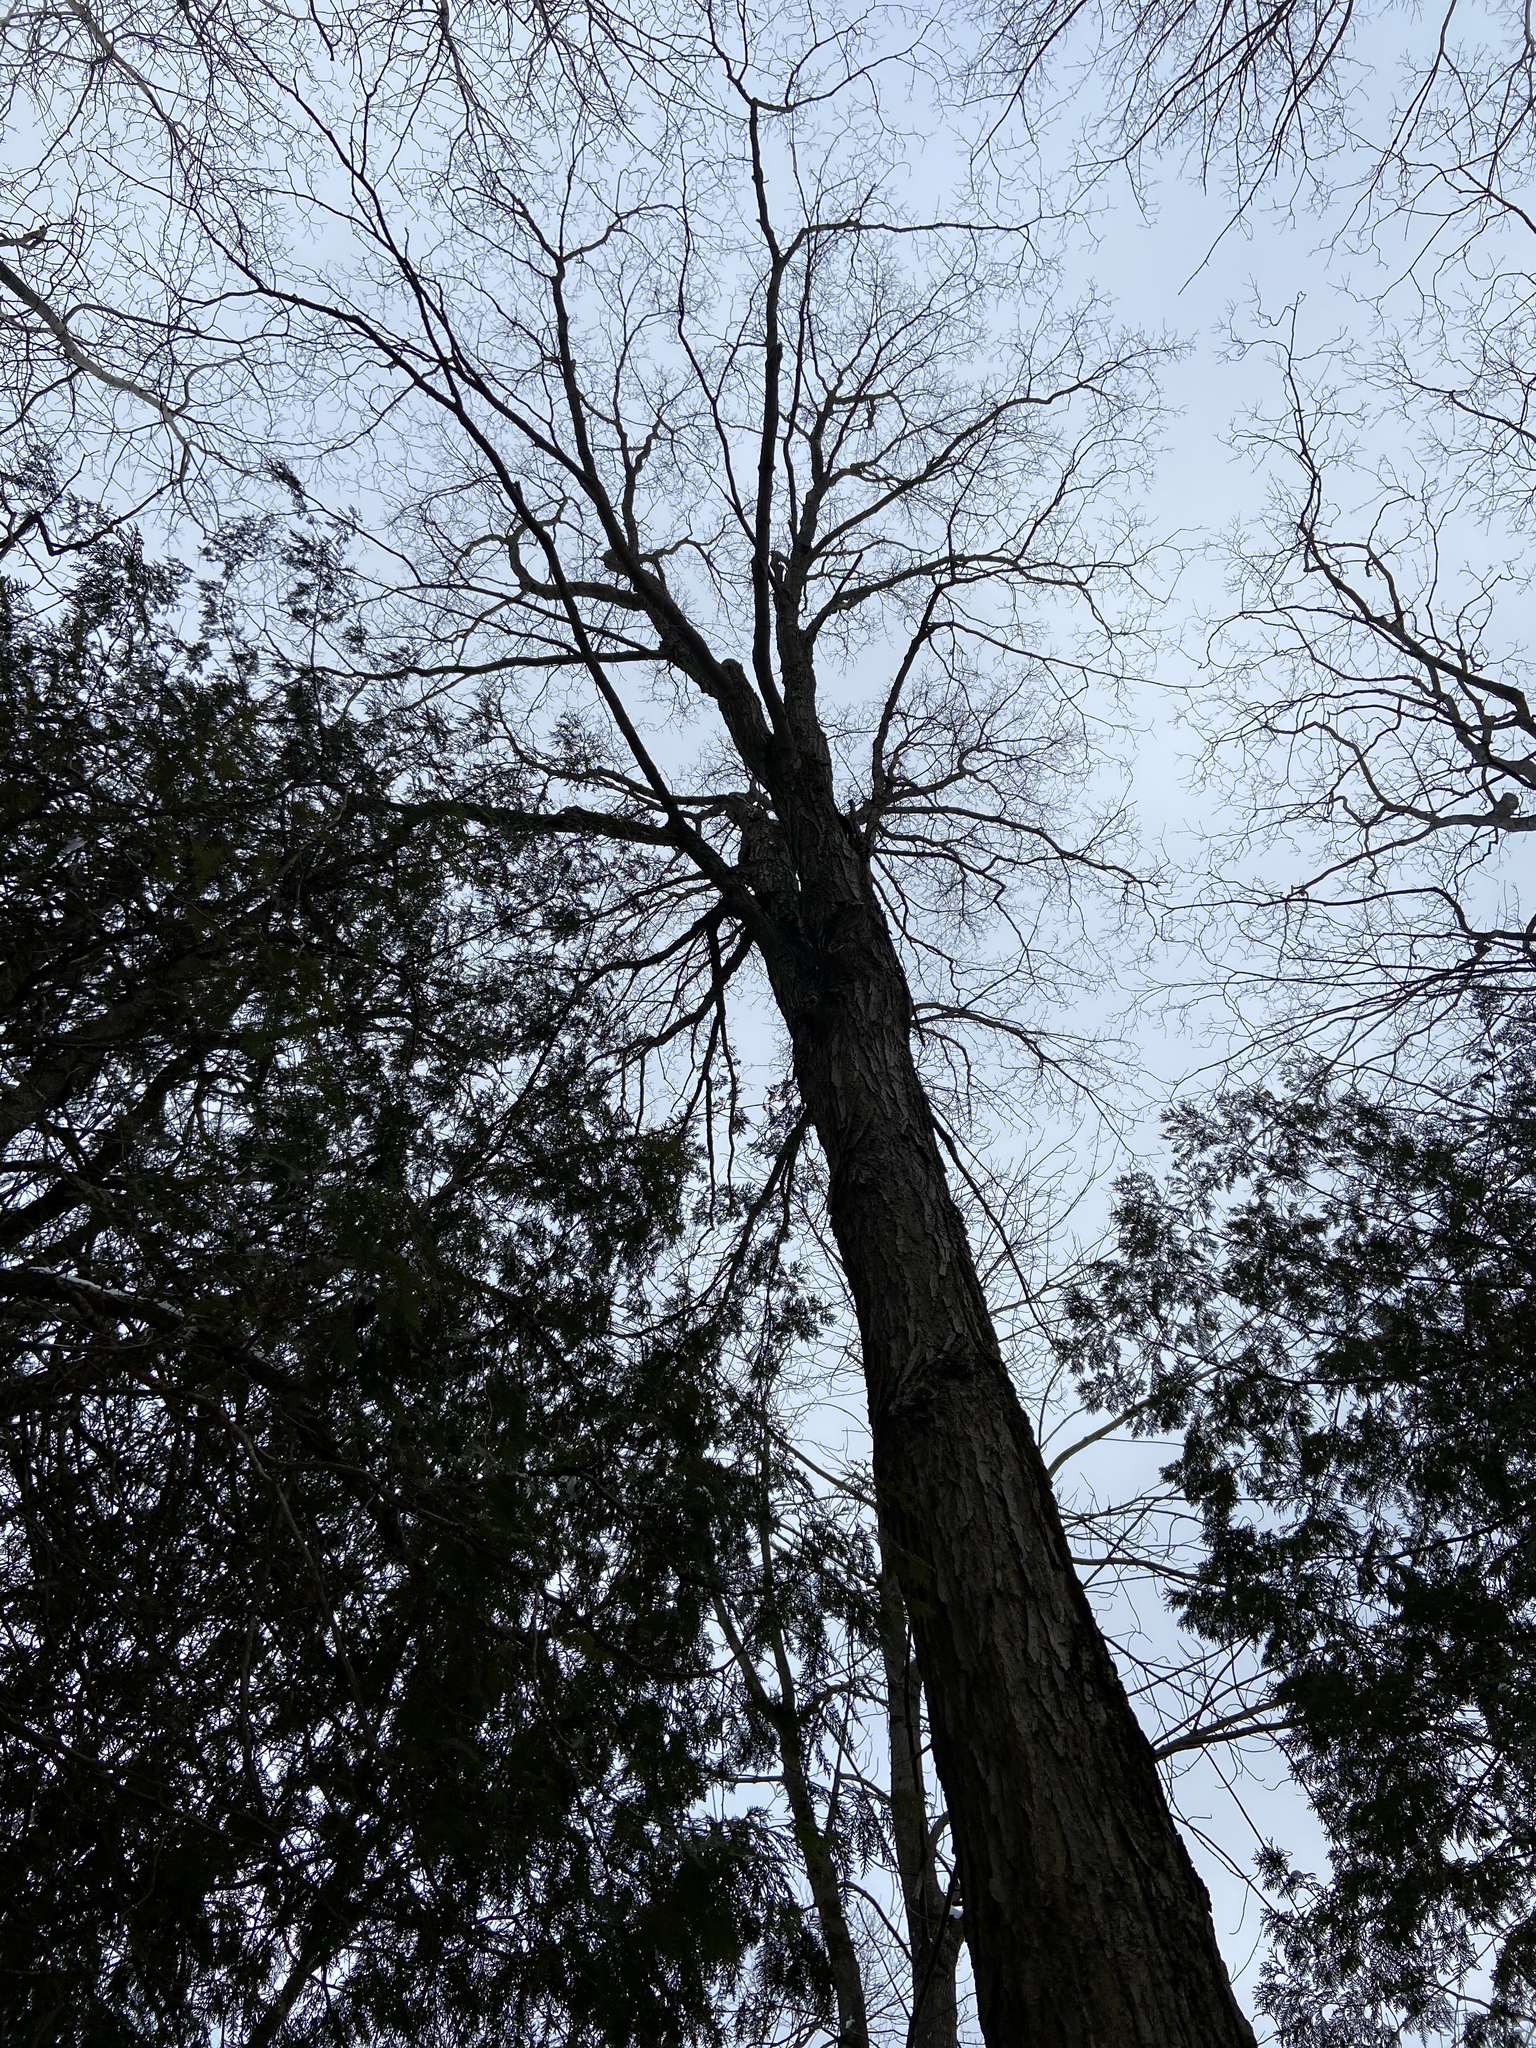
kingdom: Plantae
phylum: Tracheophyta
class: Magnoliopsida
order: Sapindales
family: Sapindaceae
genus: Acer
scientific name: Acer saccharum
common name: Sugar maple
